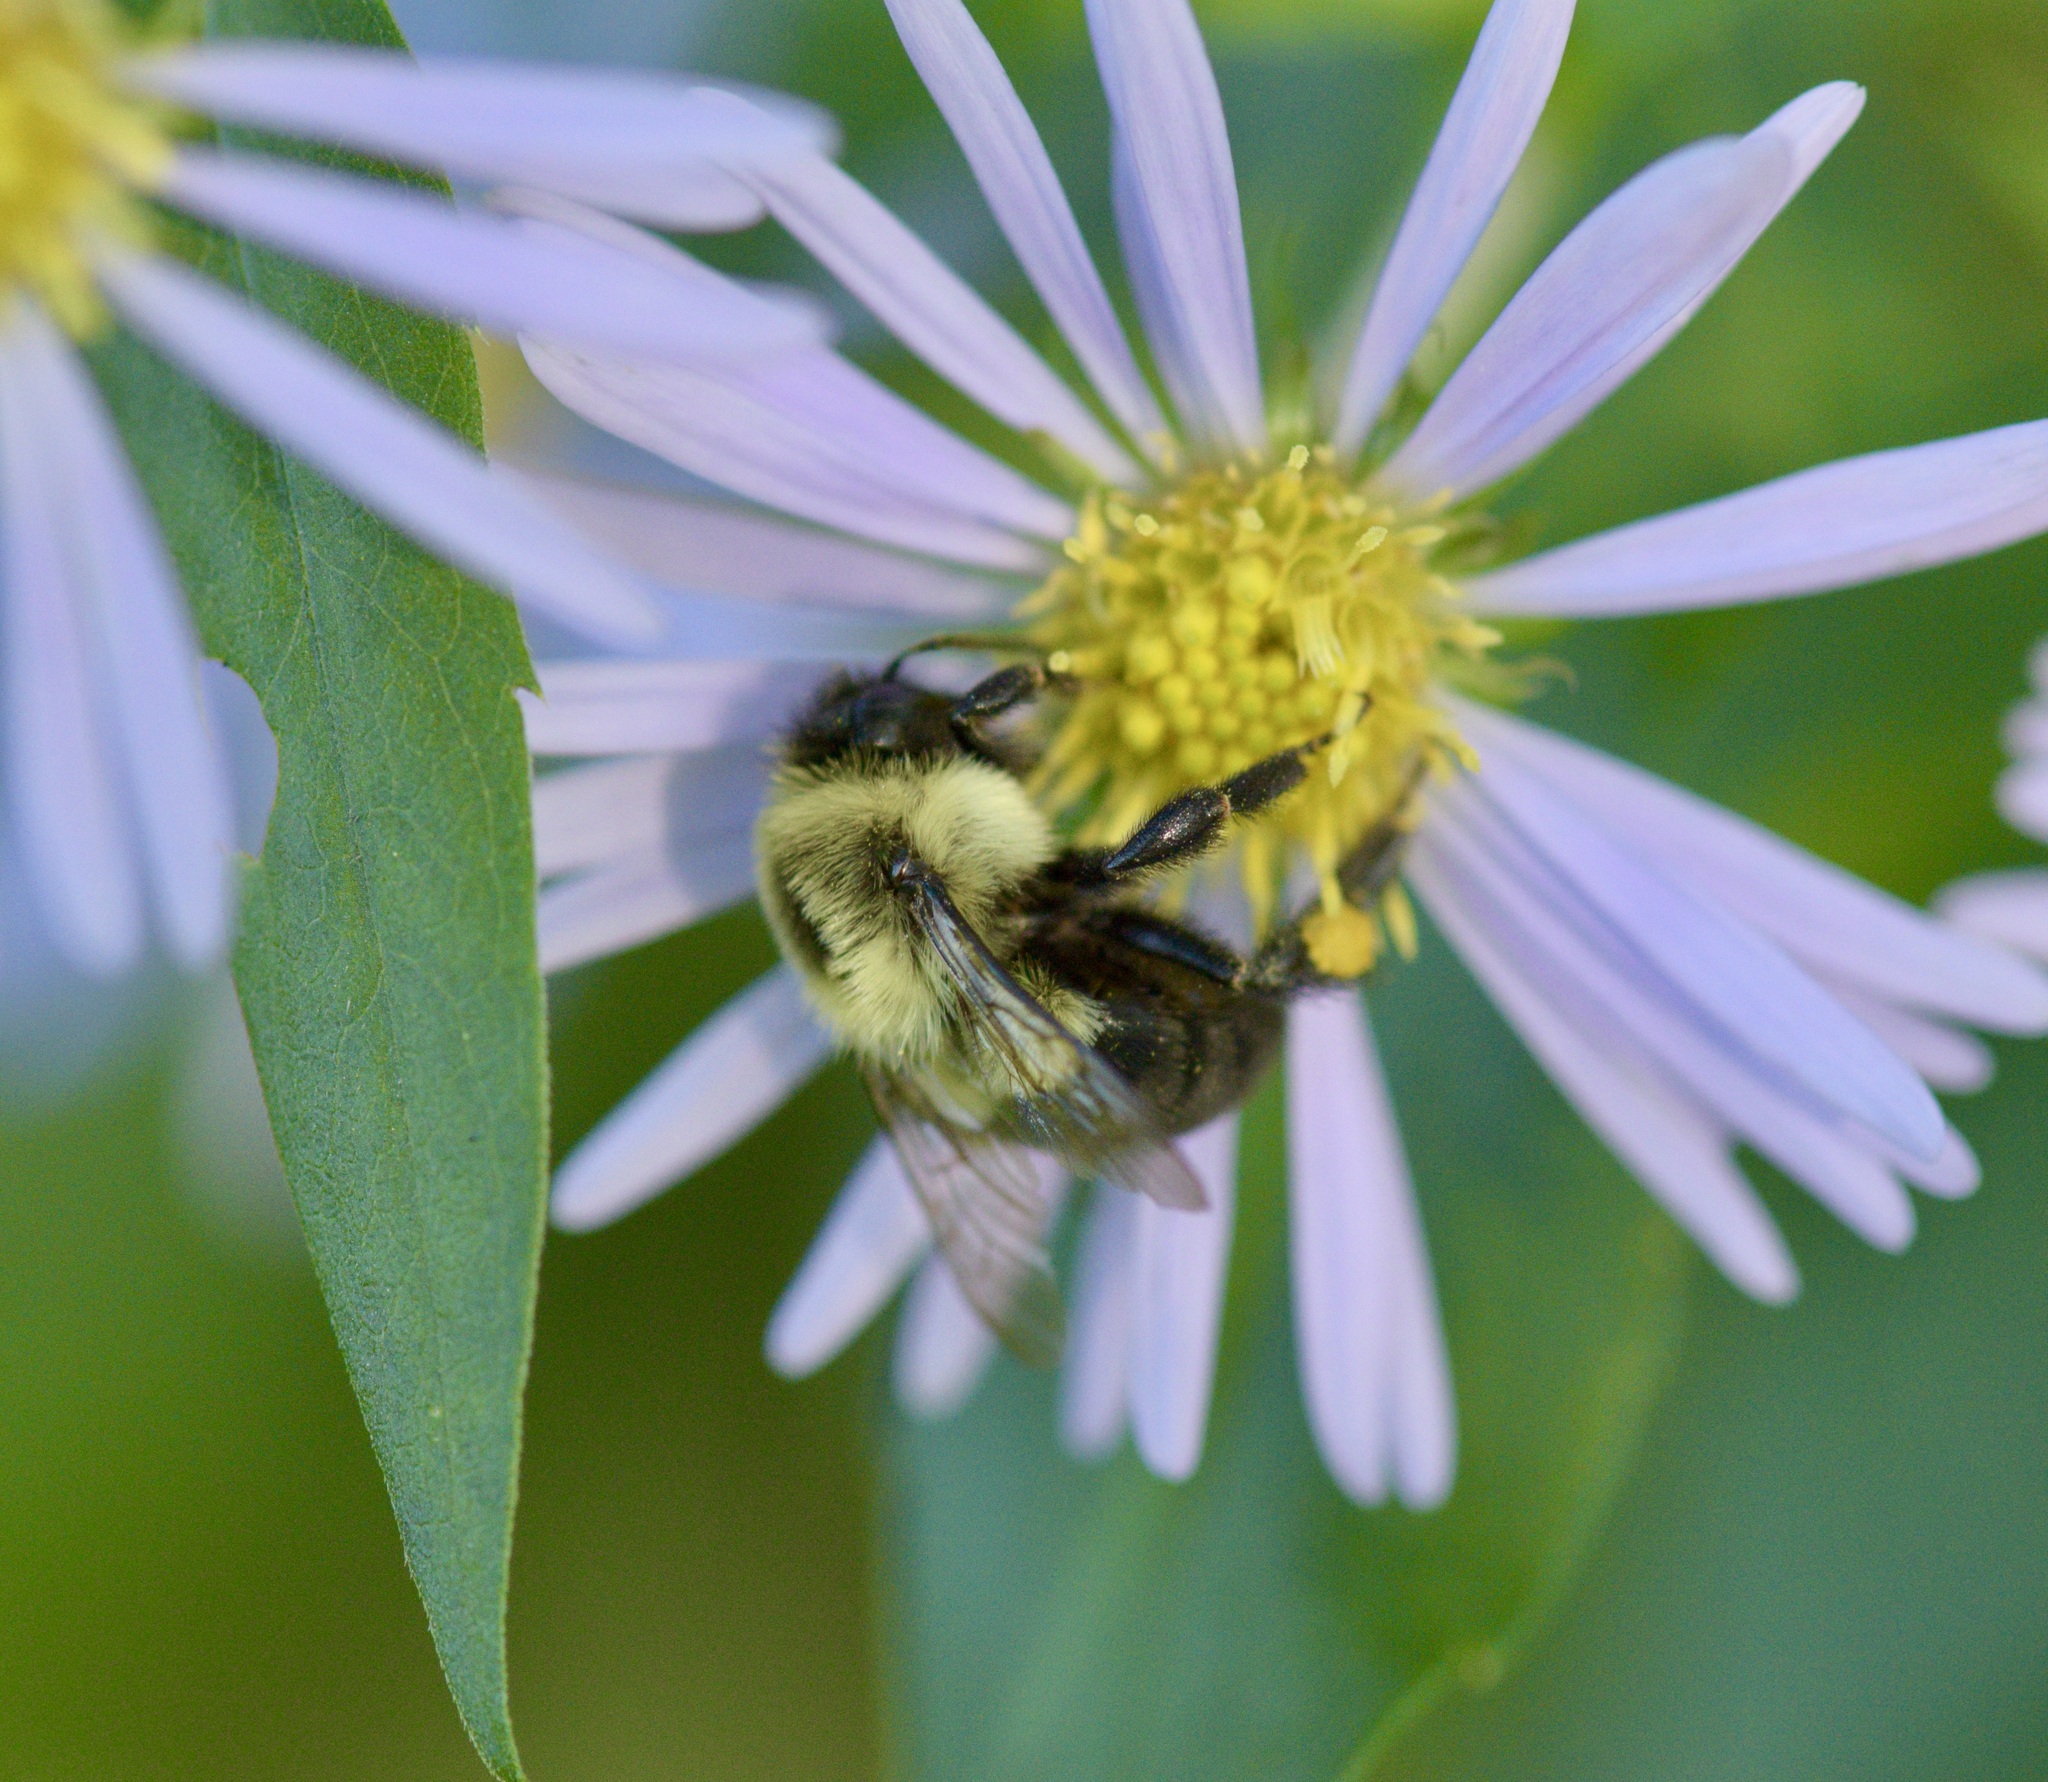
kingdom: Animalia
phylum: Arthropoda
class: Insecta
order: Hymenoptera
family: Apidae
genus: Bombus
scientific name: Bombus impatiens
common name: Common eastern bumble bee
